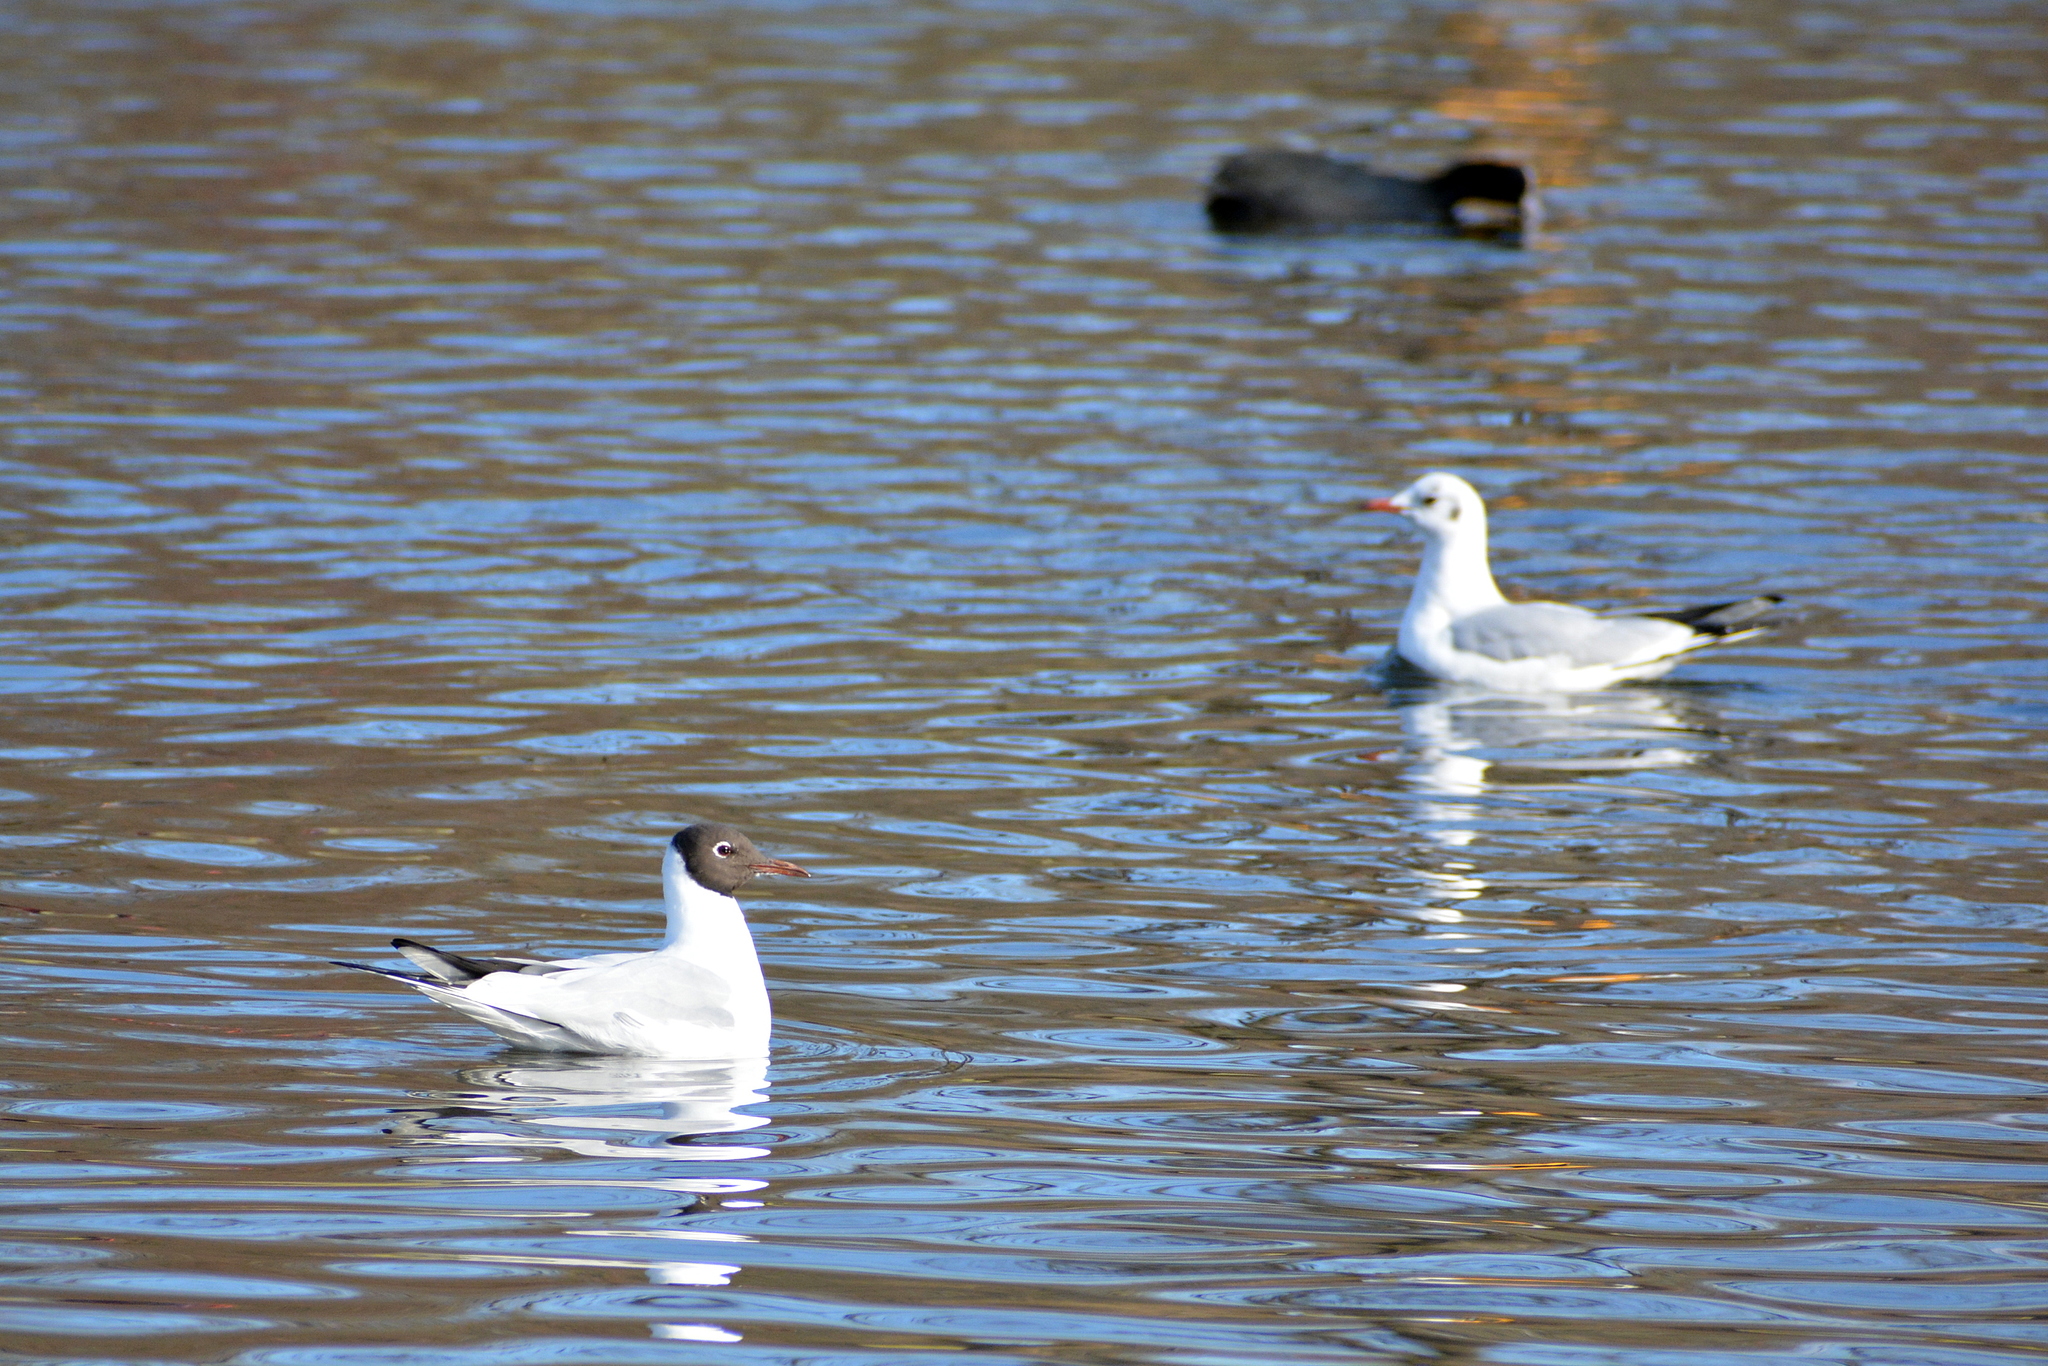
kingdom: Animalia
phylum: Chordata
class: Aves
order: Charadriiformes
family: Laridae
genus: Chroicocephalus
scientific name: Chroicocephalus ridibundus
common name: Black-headed gull
